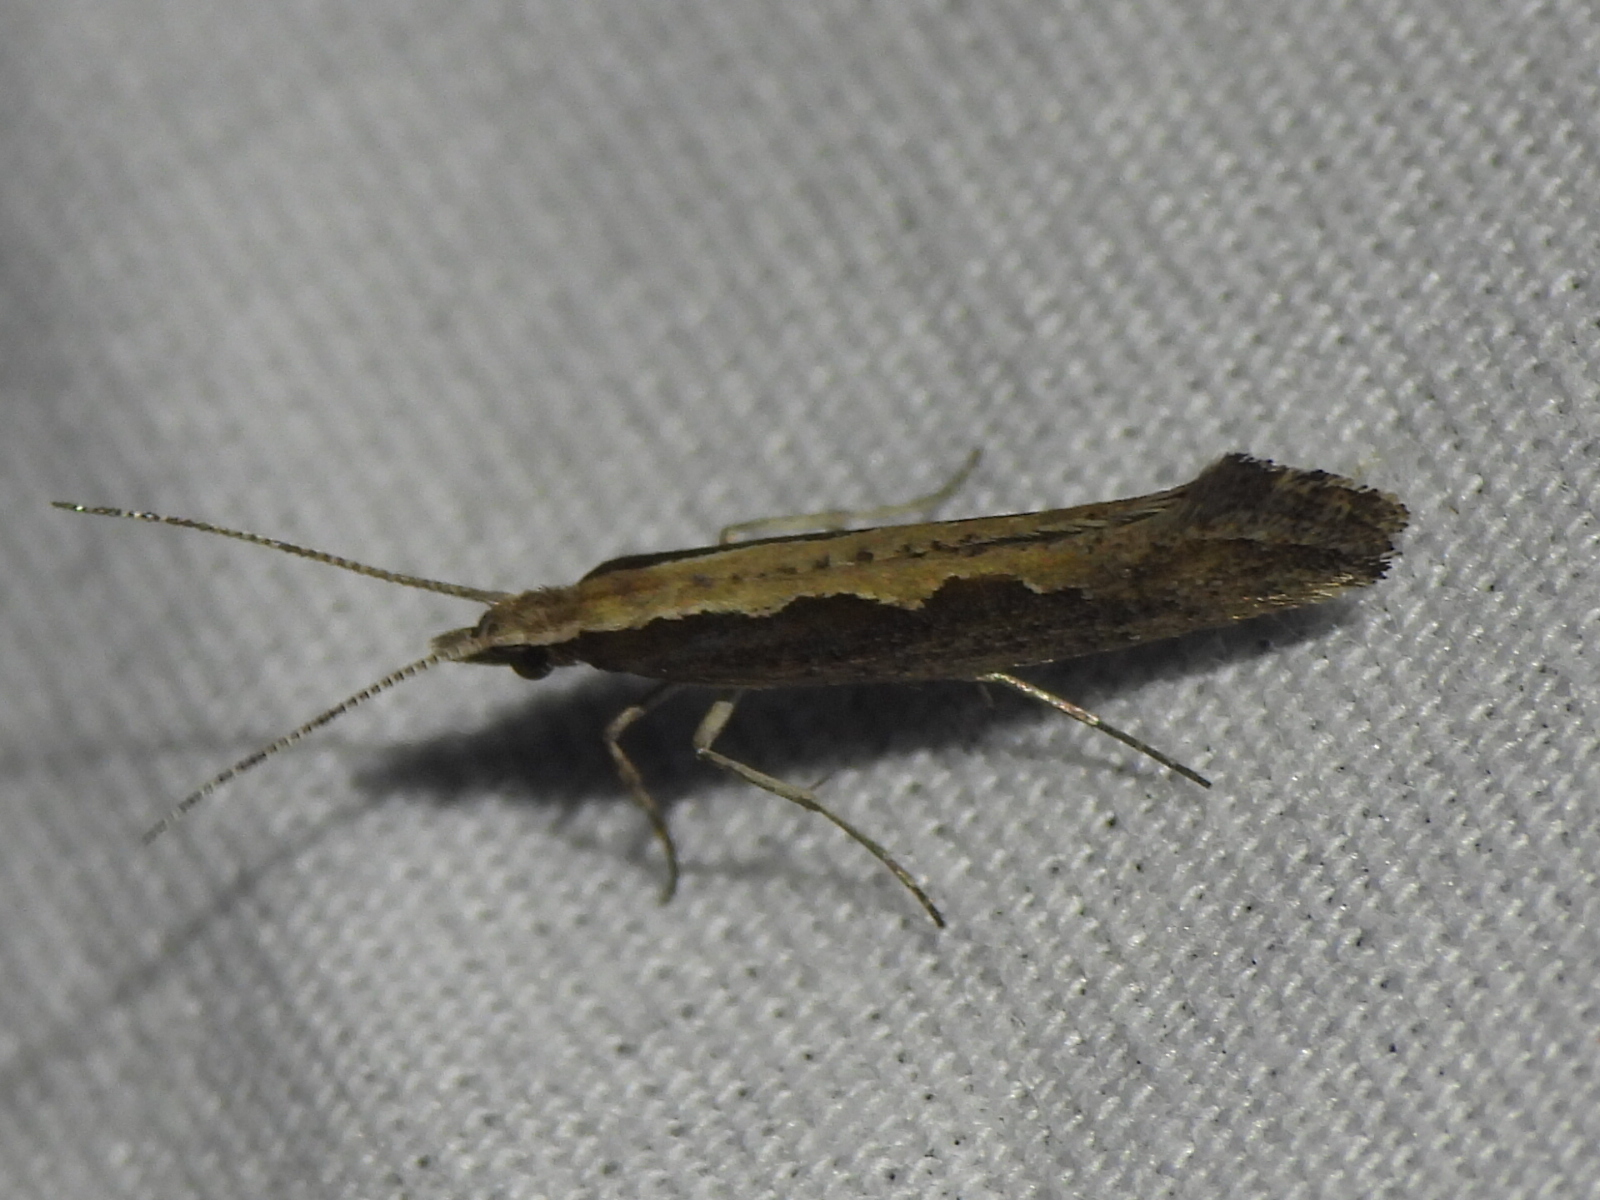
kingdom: Animalia
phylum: Arthropoda
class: Insecta
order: Lepidoptera
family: Plutellidae
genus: Plutella
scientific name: Plutella xylostella
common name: Diamond-back moth
